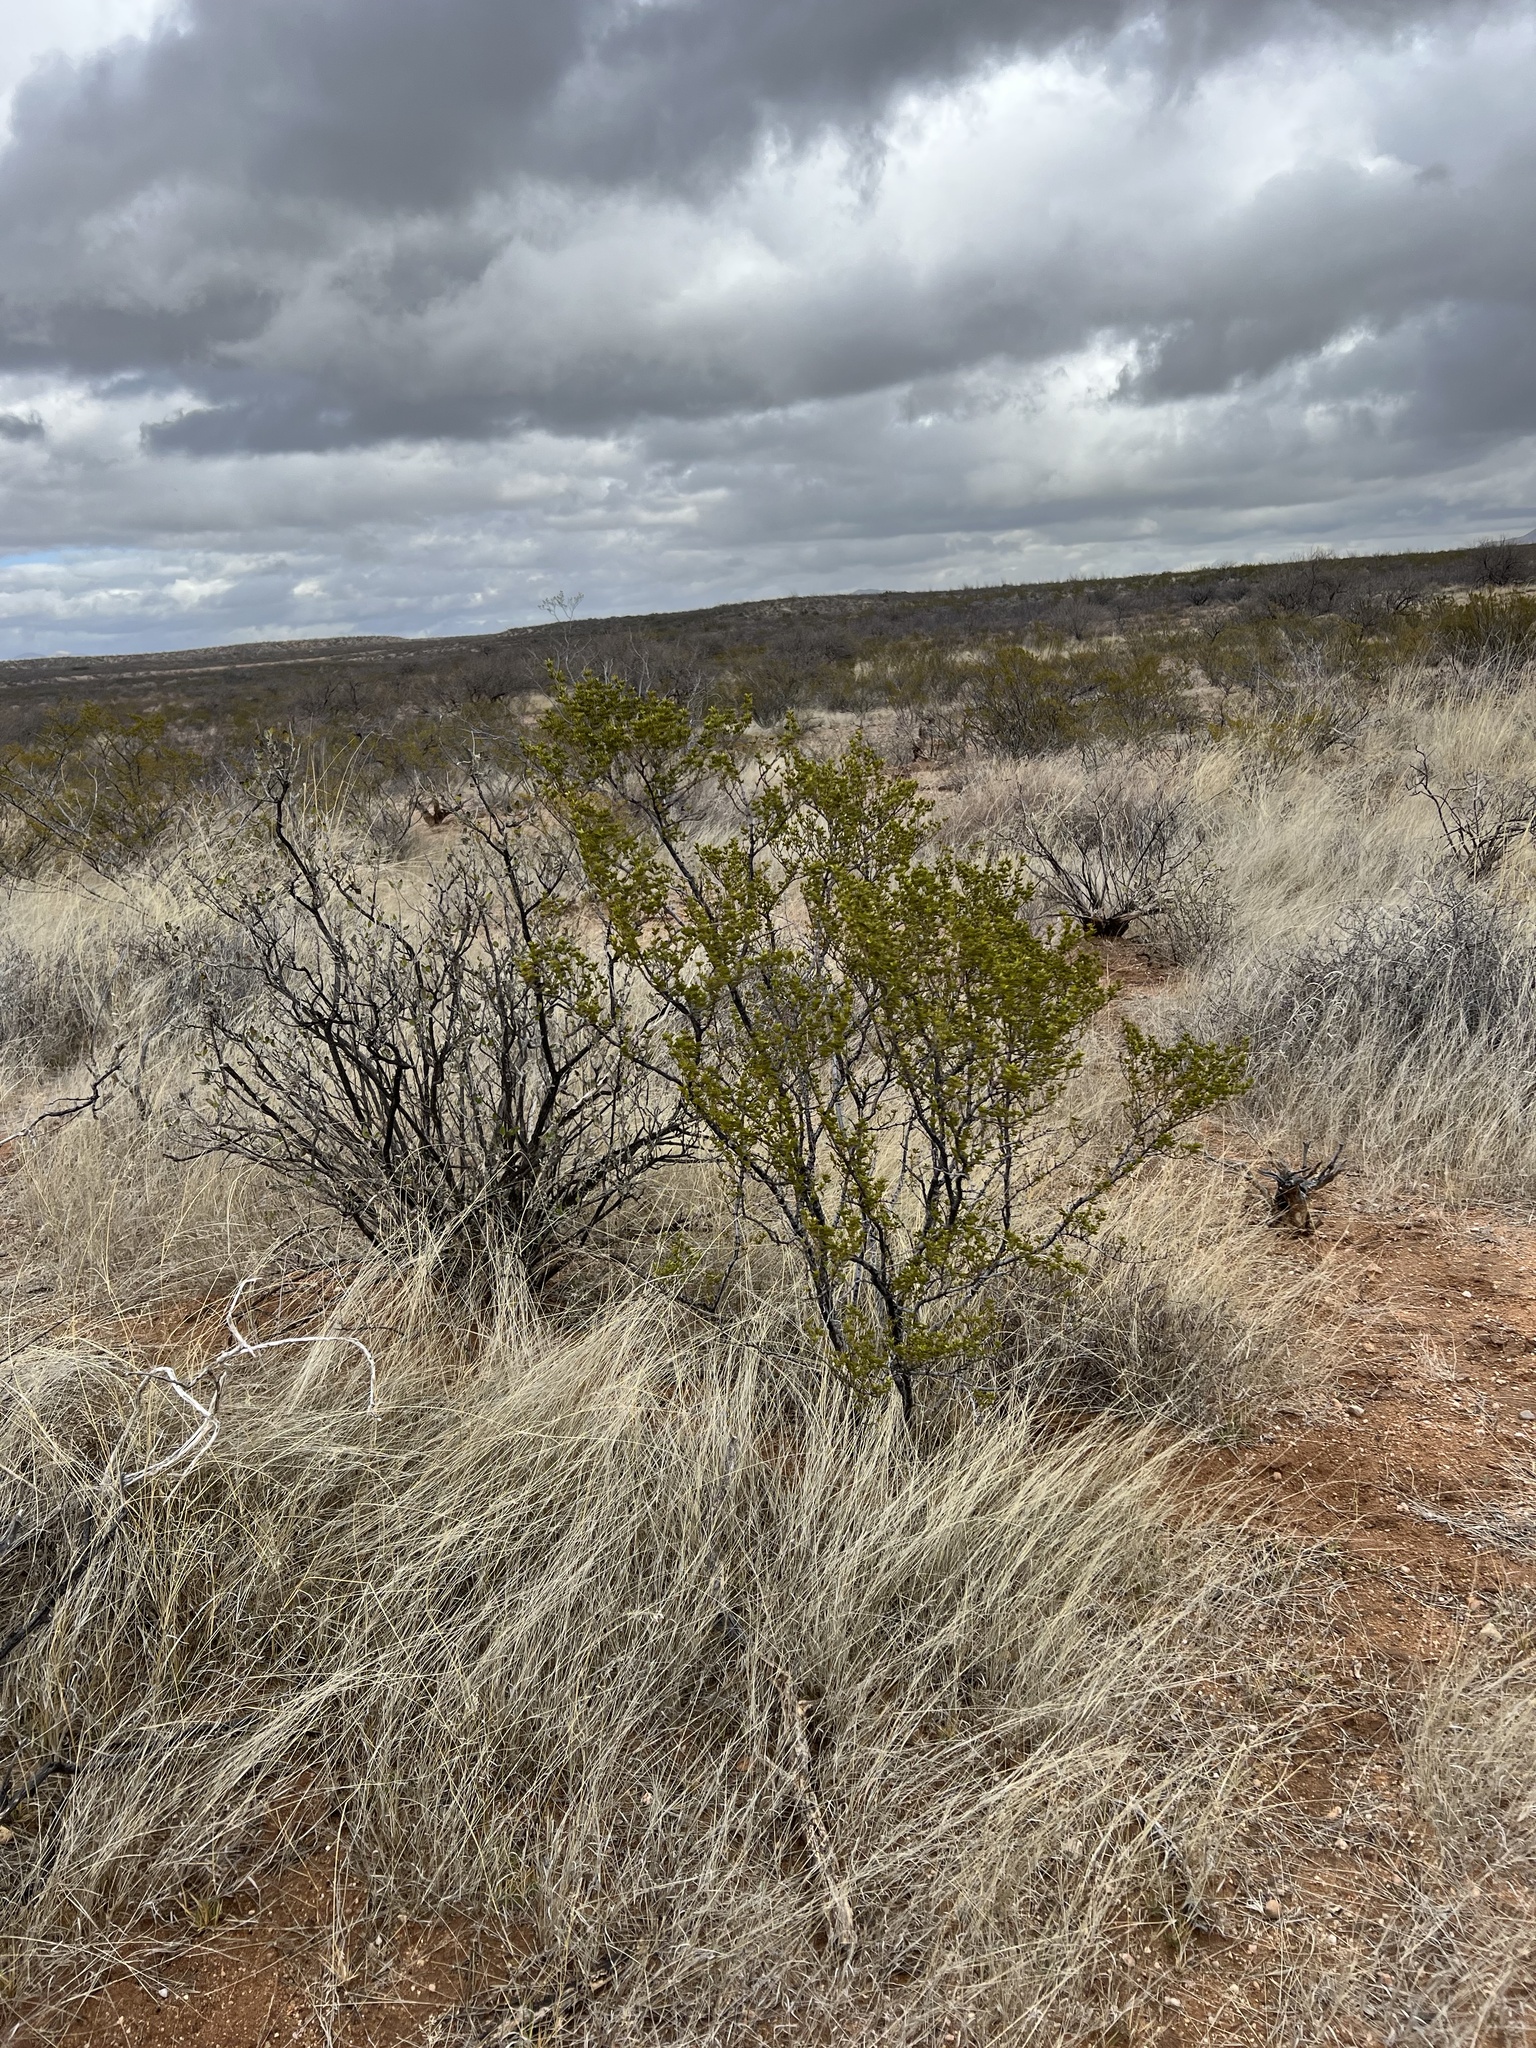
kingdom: Plantae
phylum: Tracheophyta
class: Magnoliopsida
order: Zygophyllales
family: Zygophyllaceae
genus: Larrea
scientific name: Larrea tridentata
